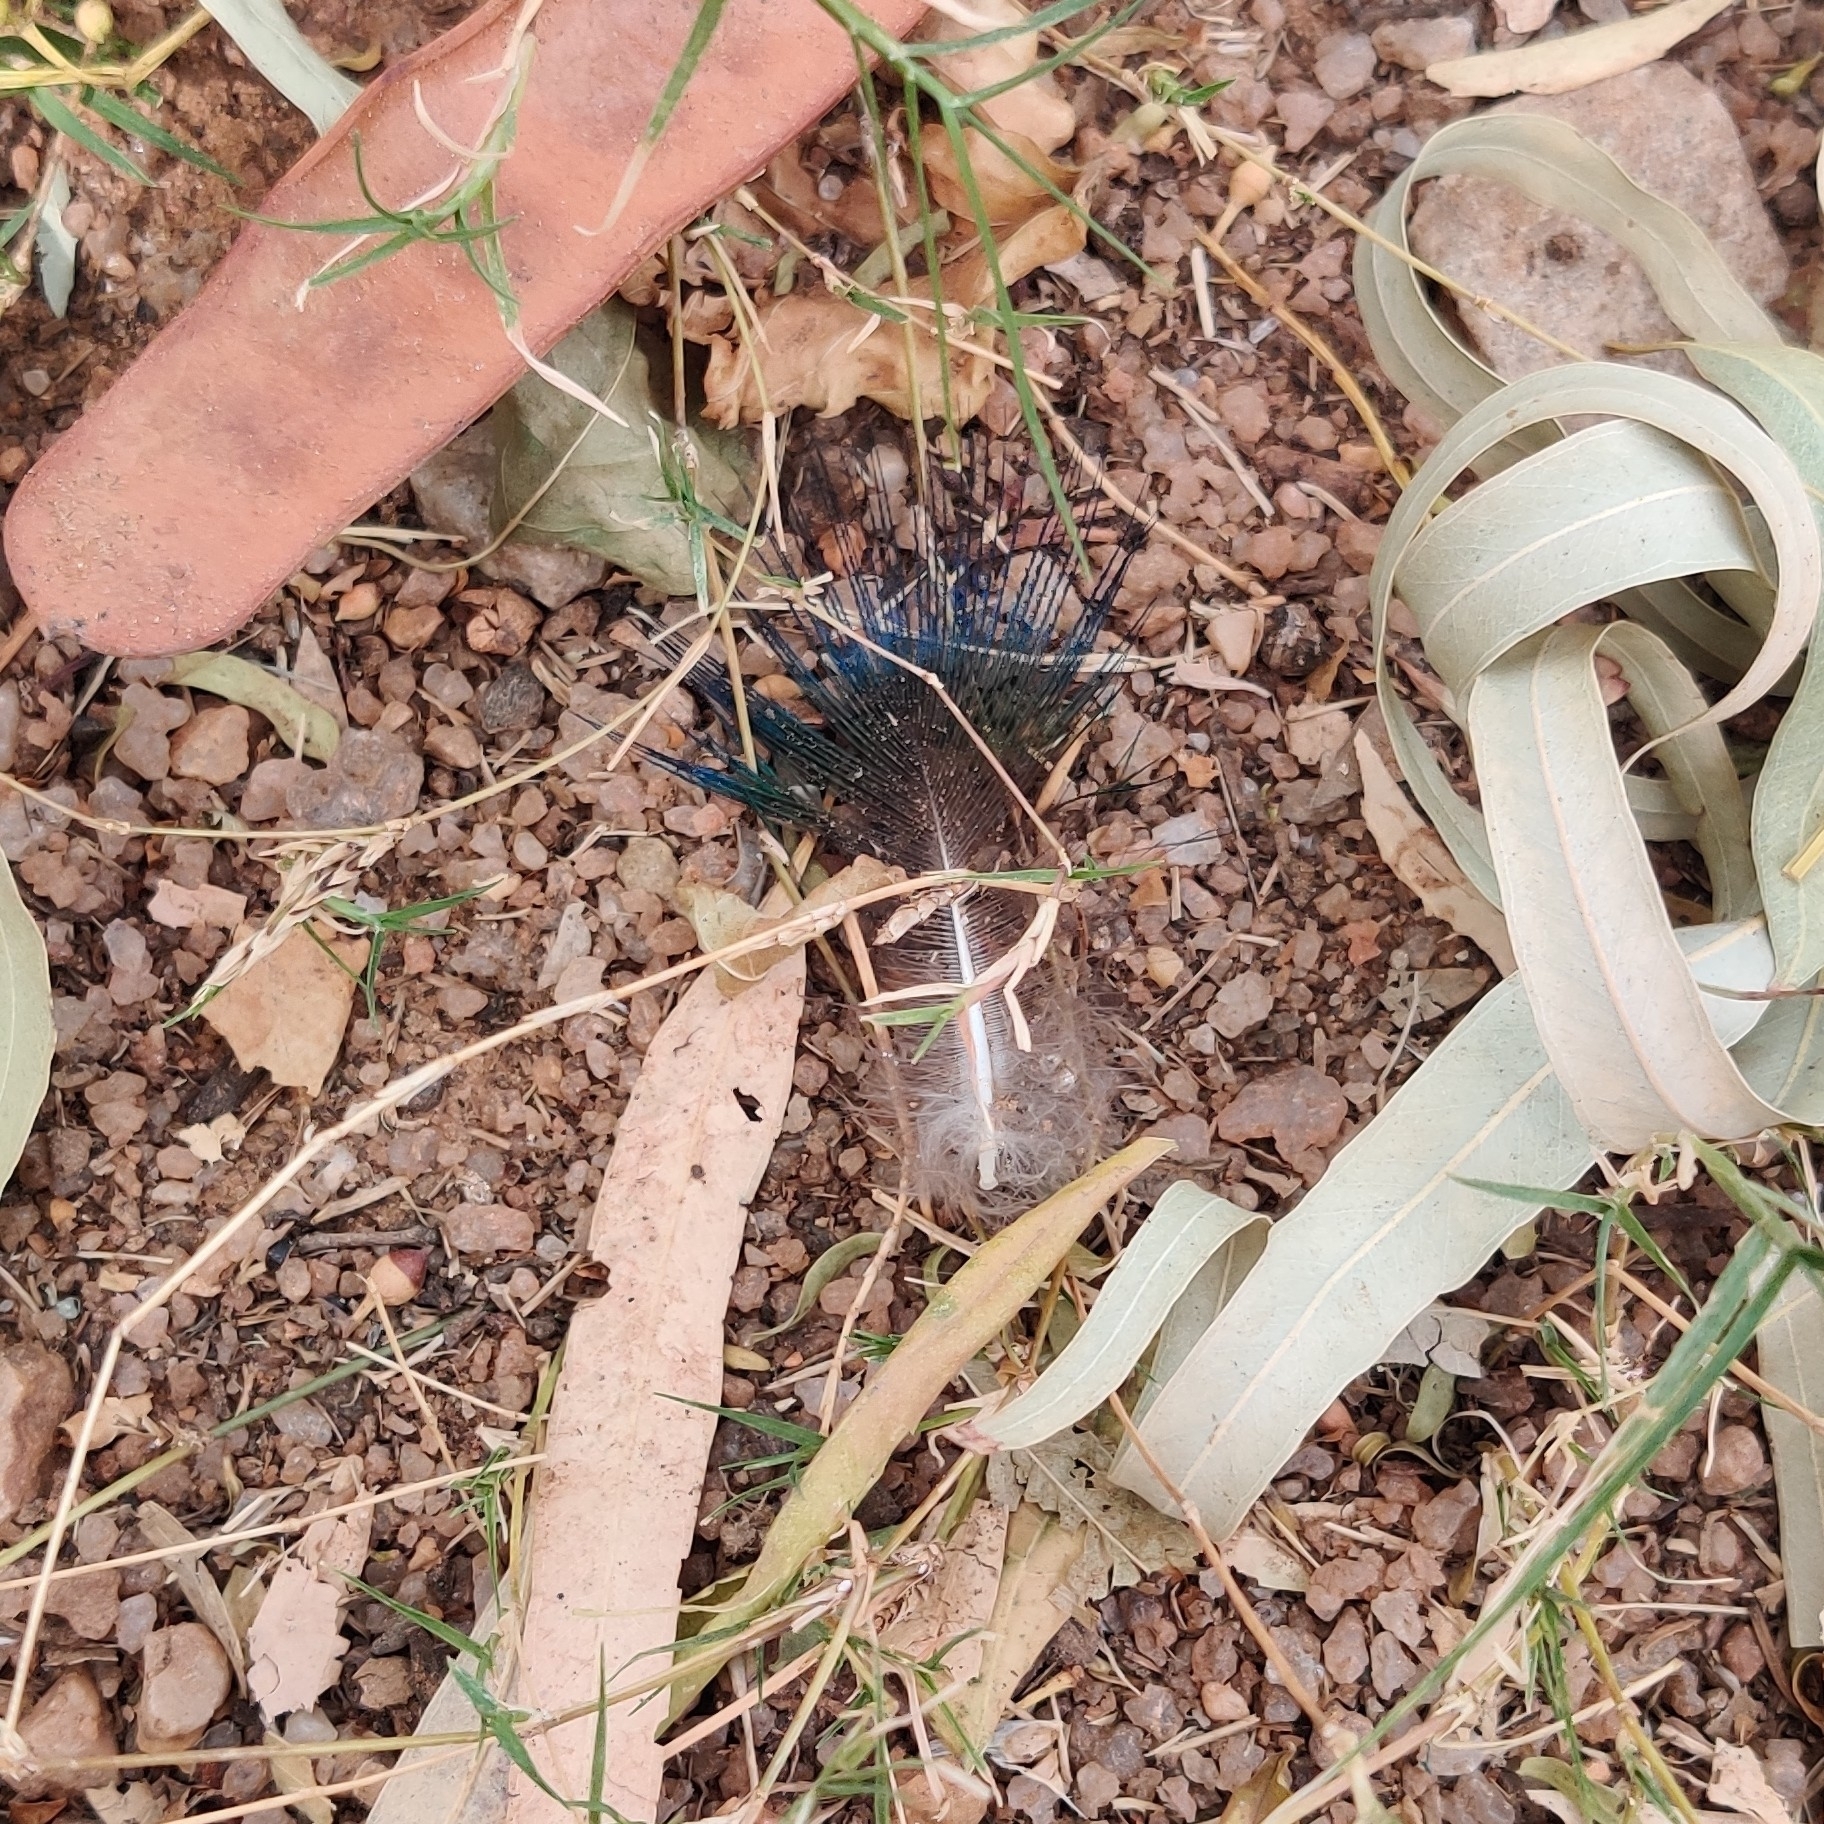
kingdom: Animalia
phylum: Chordata
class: Aves
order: Galliformes
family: Phasianidae
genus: Pavo
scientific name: Pavo cristatus
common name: Indian peafowl
